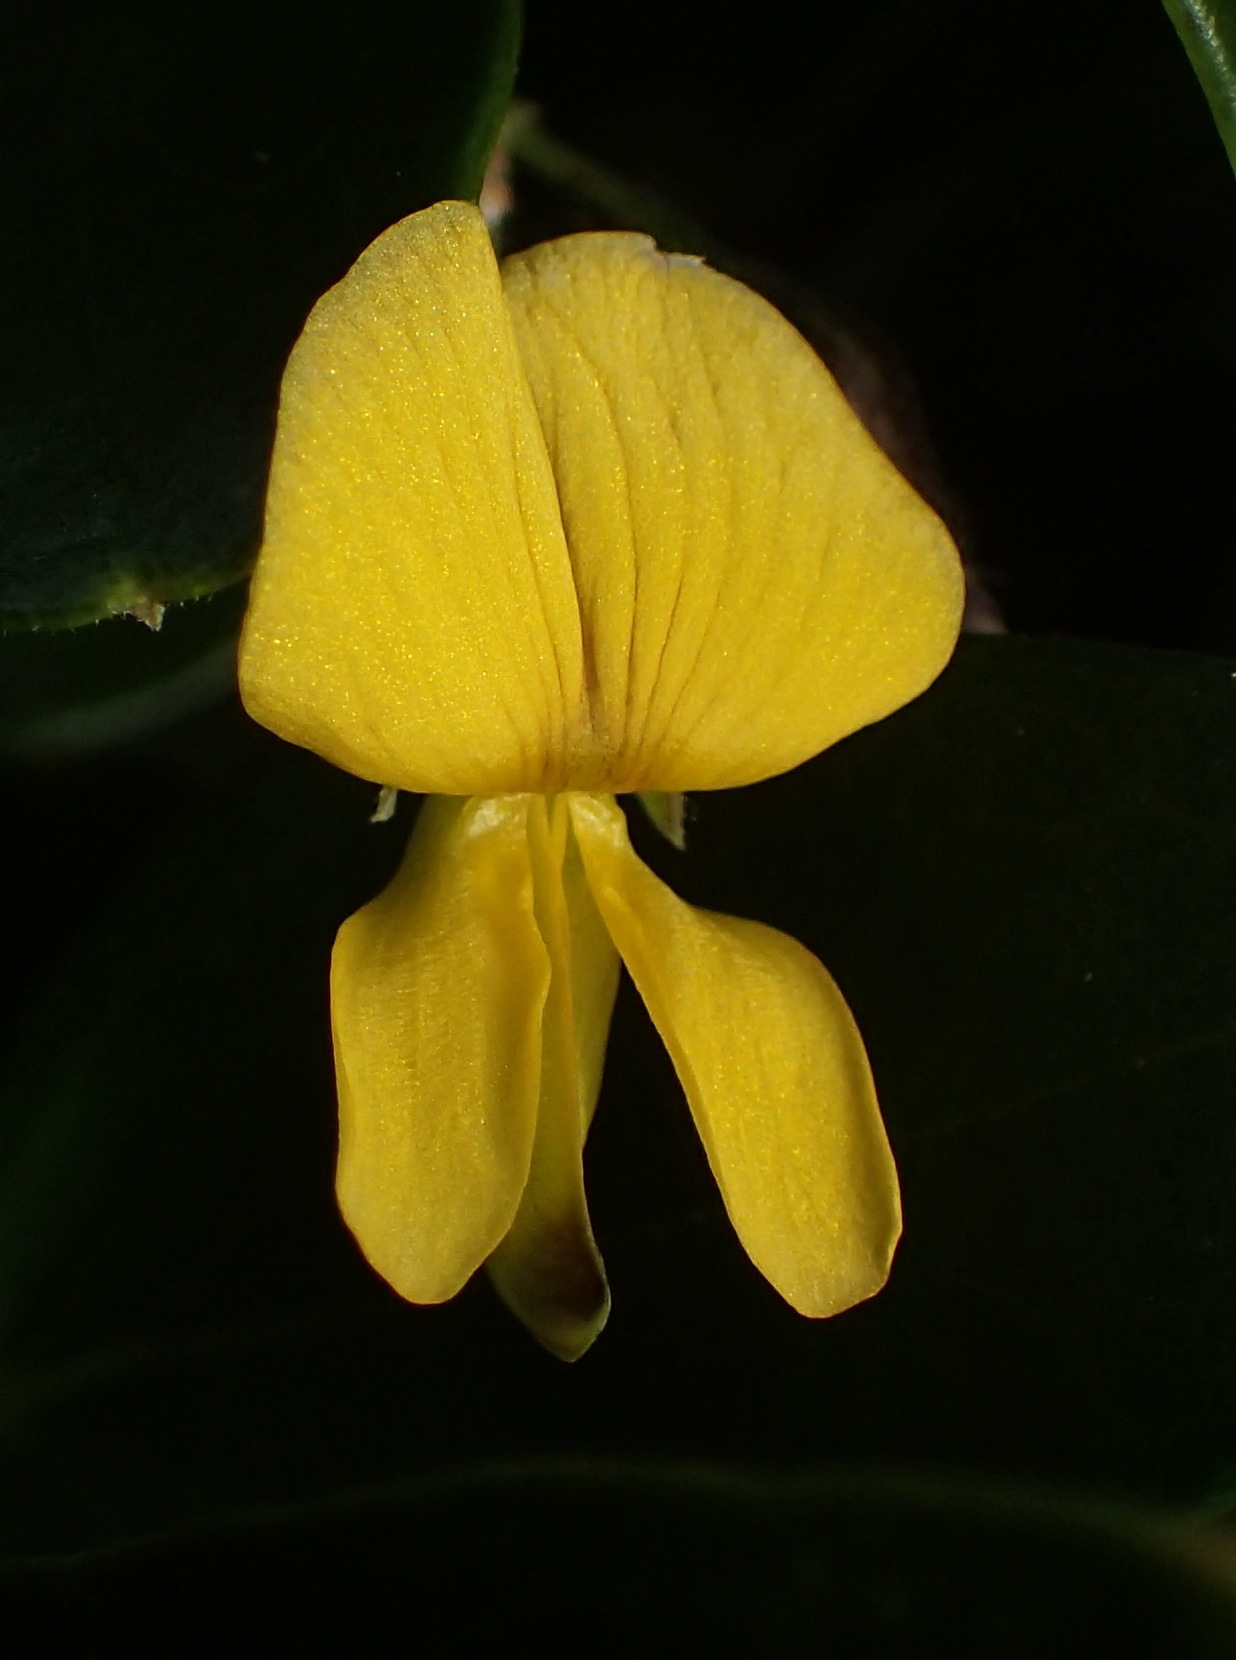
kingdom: Plantae
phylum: Tracheophyta
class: Magnoliopsida
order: Fabales
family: Fabaceae
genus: Rhynchosia
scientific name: Rhynchosia caribaea
